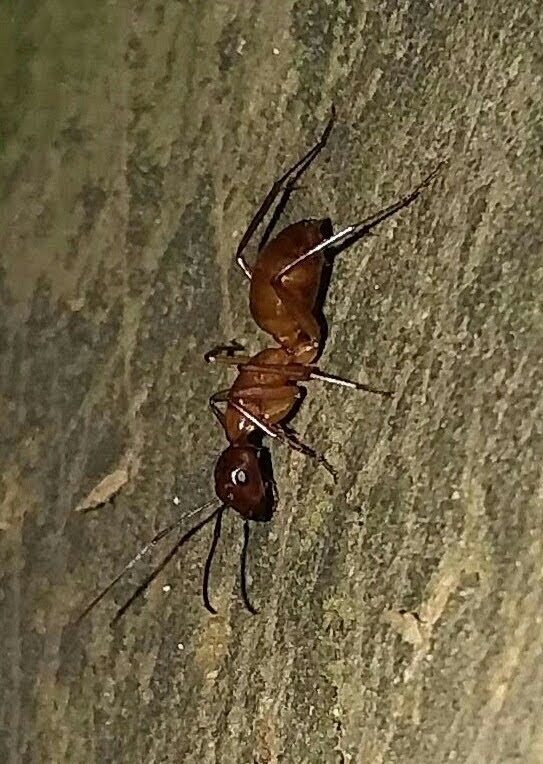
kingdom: Animalia
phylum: Arthropoda
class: Insecta
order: Hymenoptera
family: Formicidae
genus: Camponotus
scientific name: Camponotus castaneus
